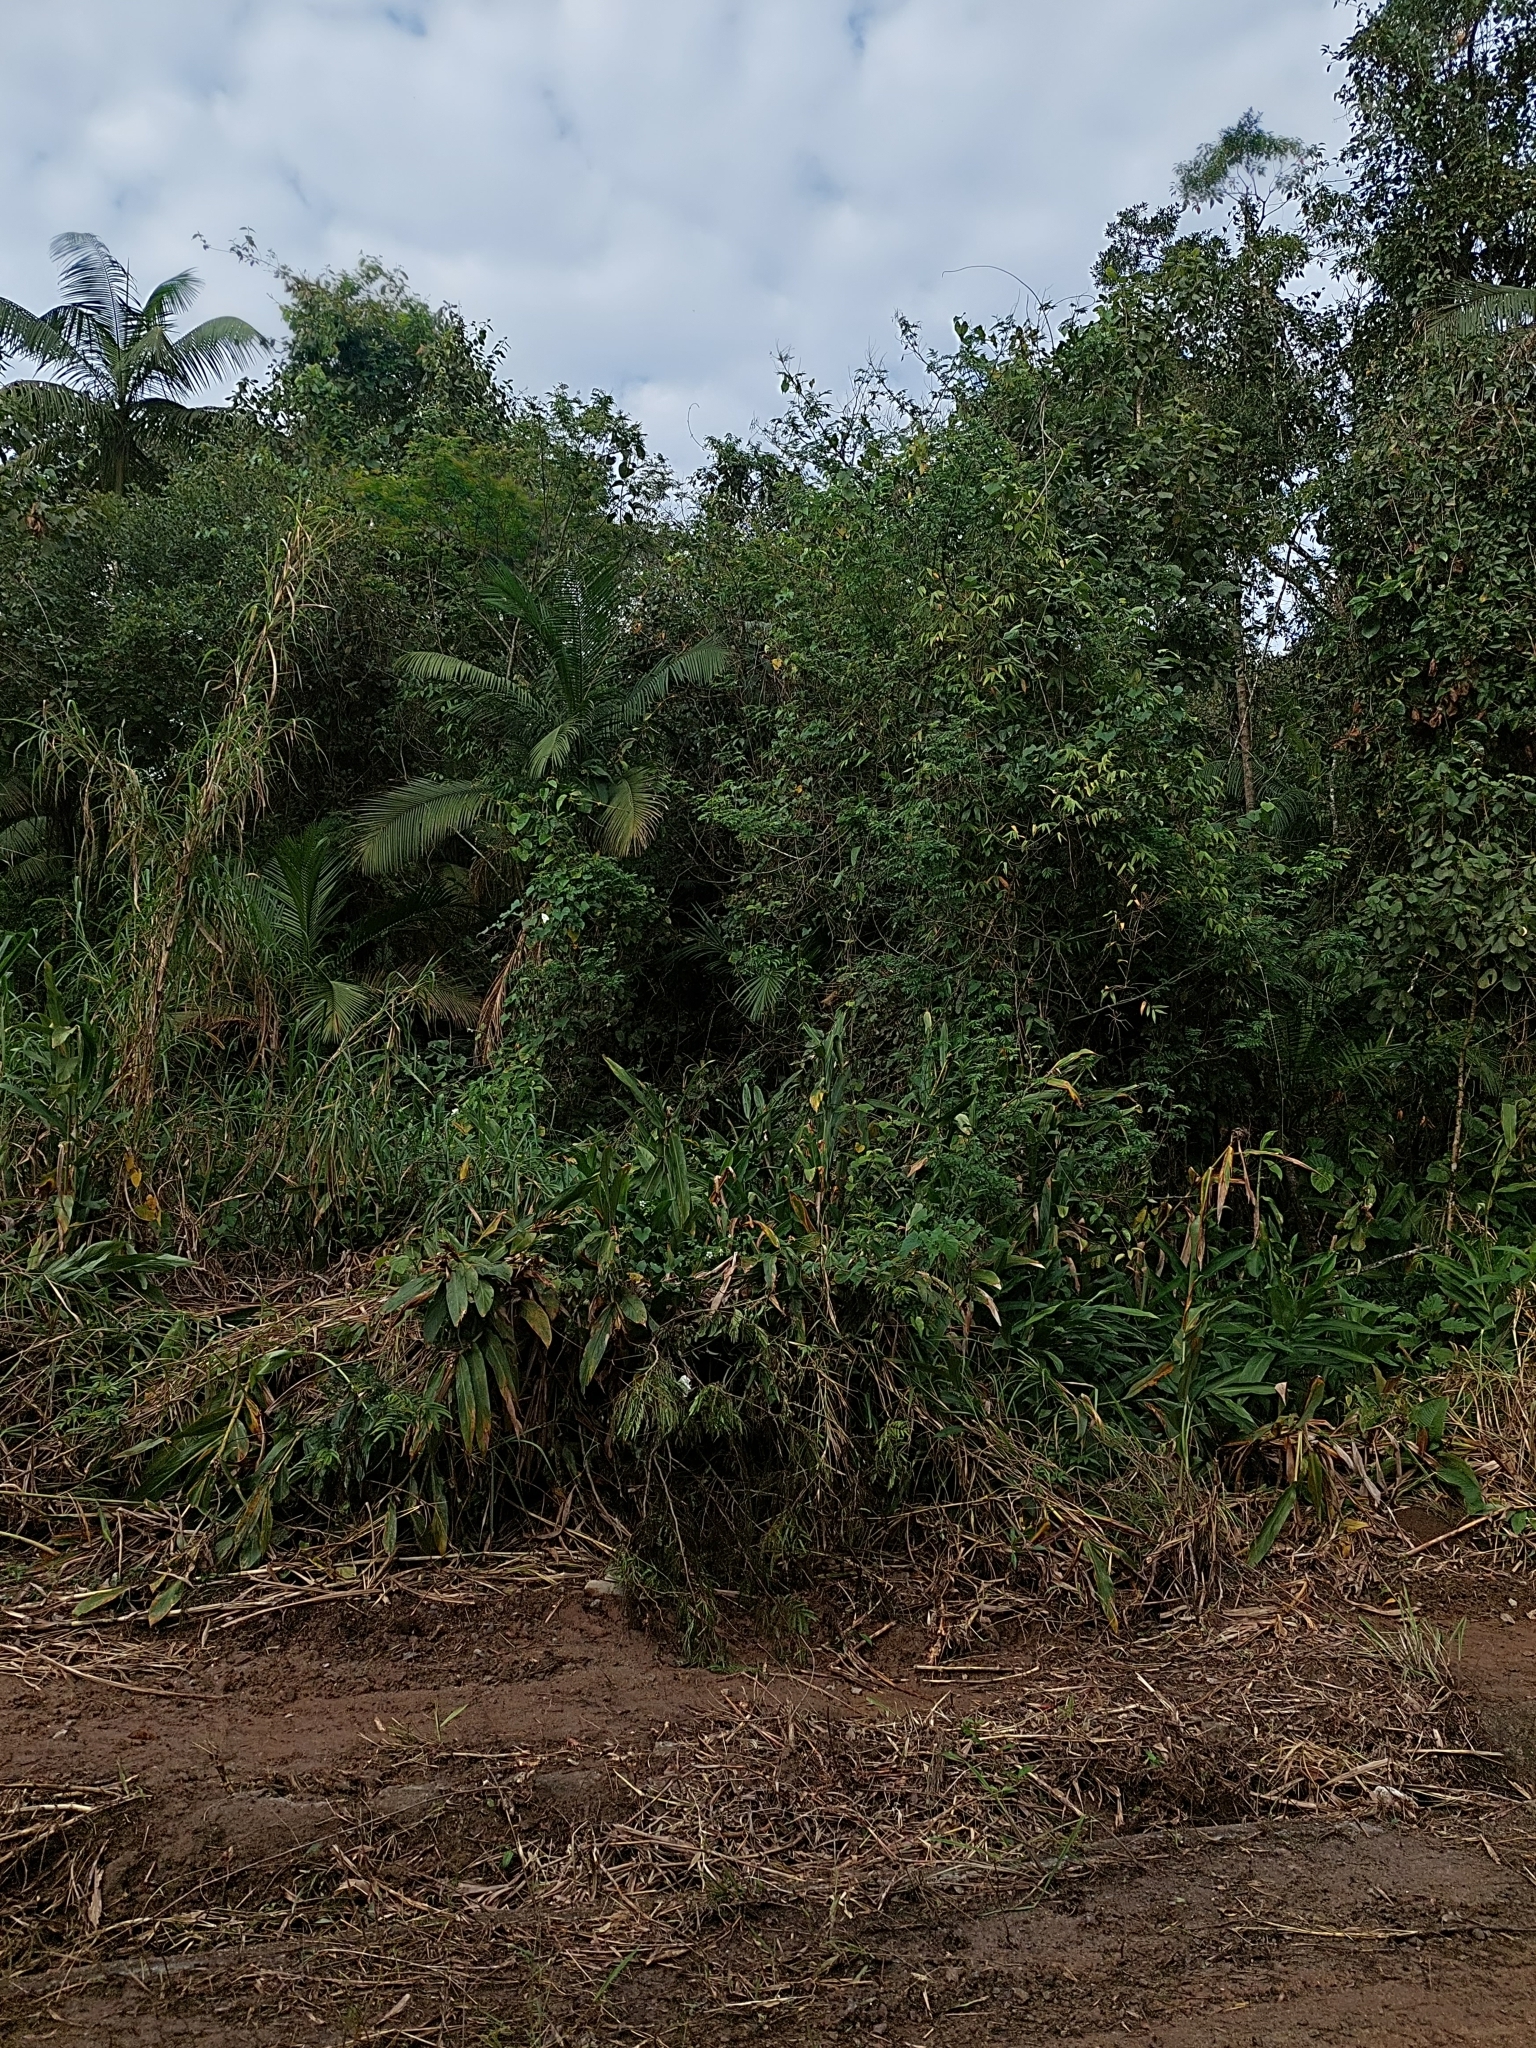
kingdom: Plantae
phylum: Tracheophyta
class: Liliopsida
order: Zingiberales
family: Zingiberaceae
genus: Hedychium
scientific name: Hedychium coronarium
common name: White garland-lily
